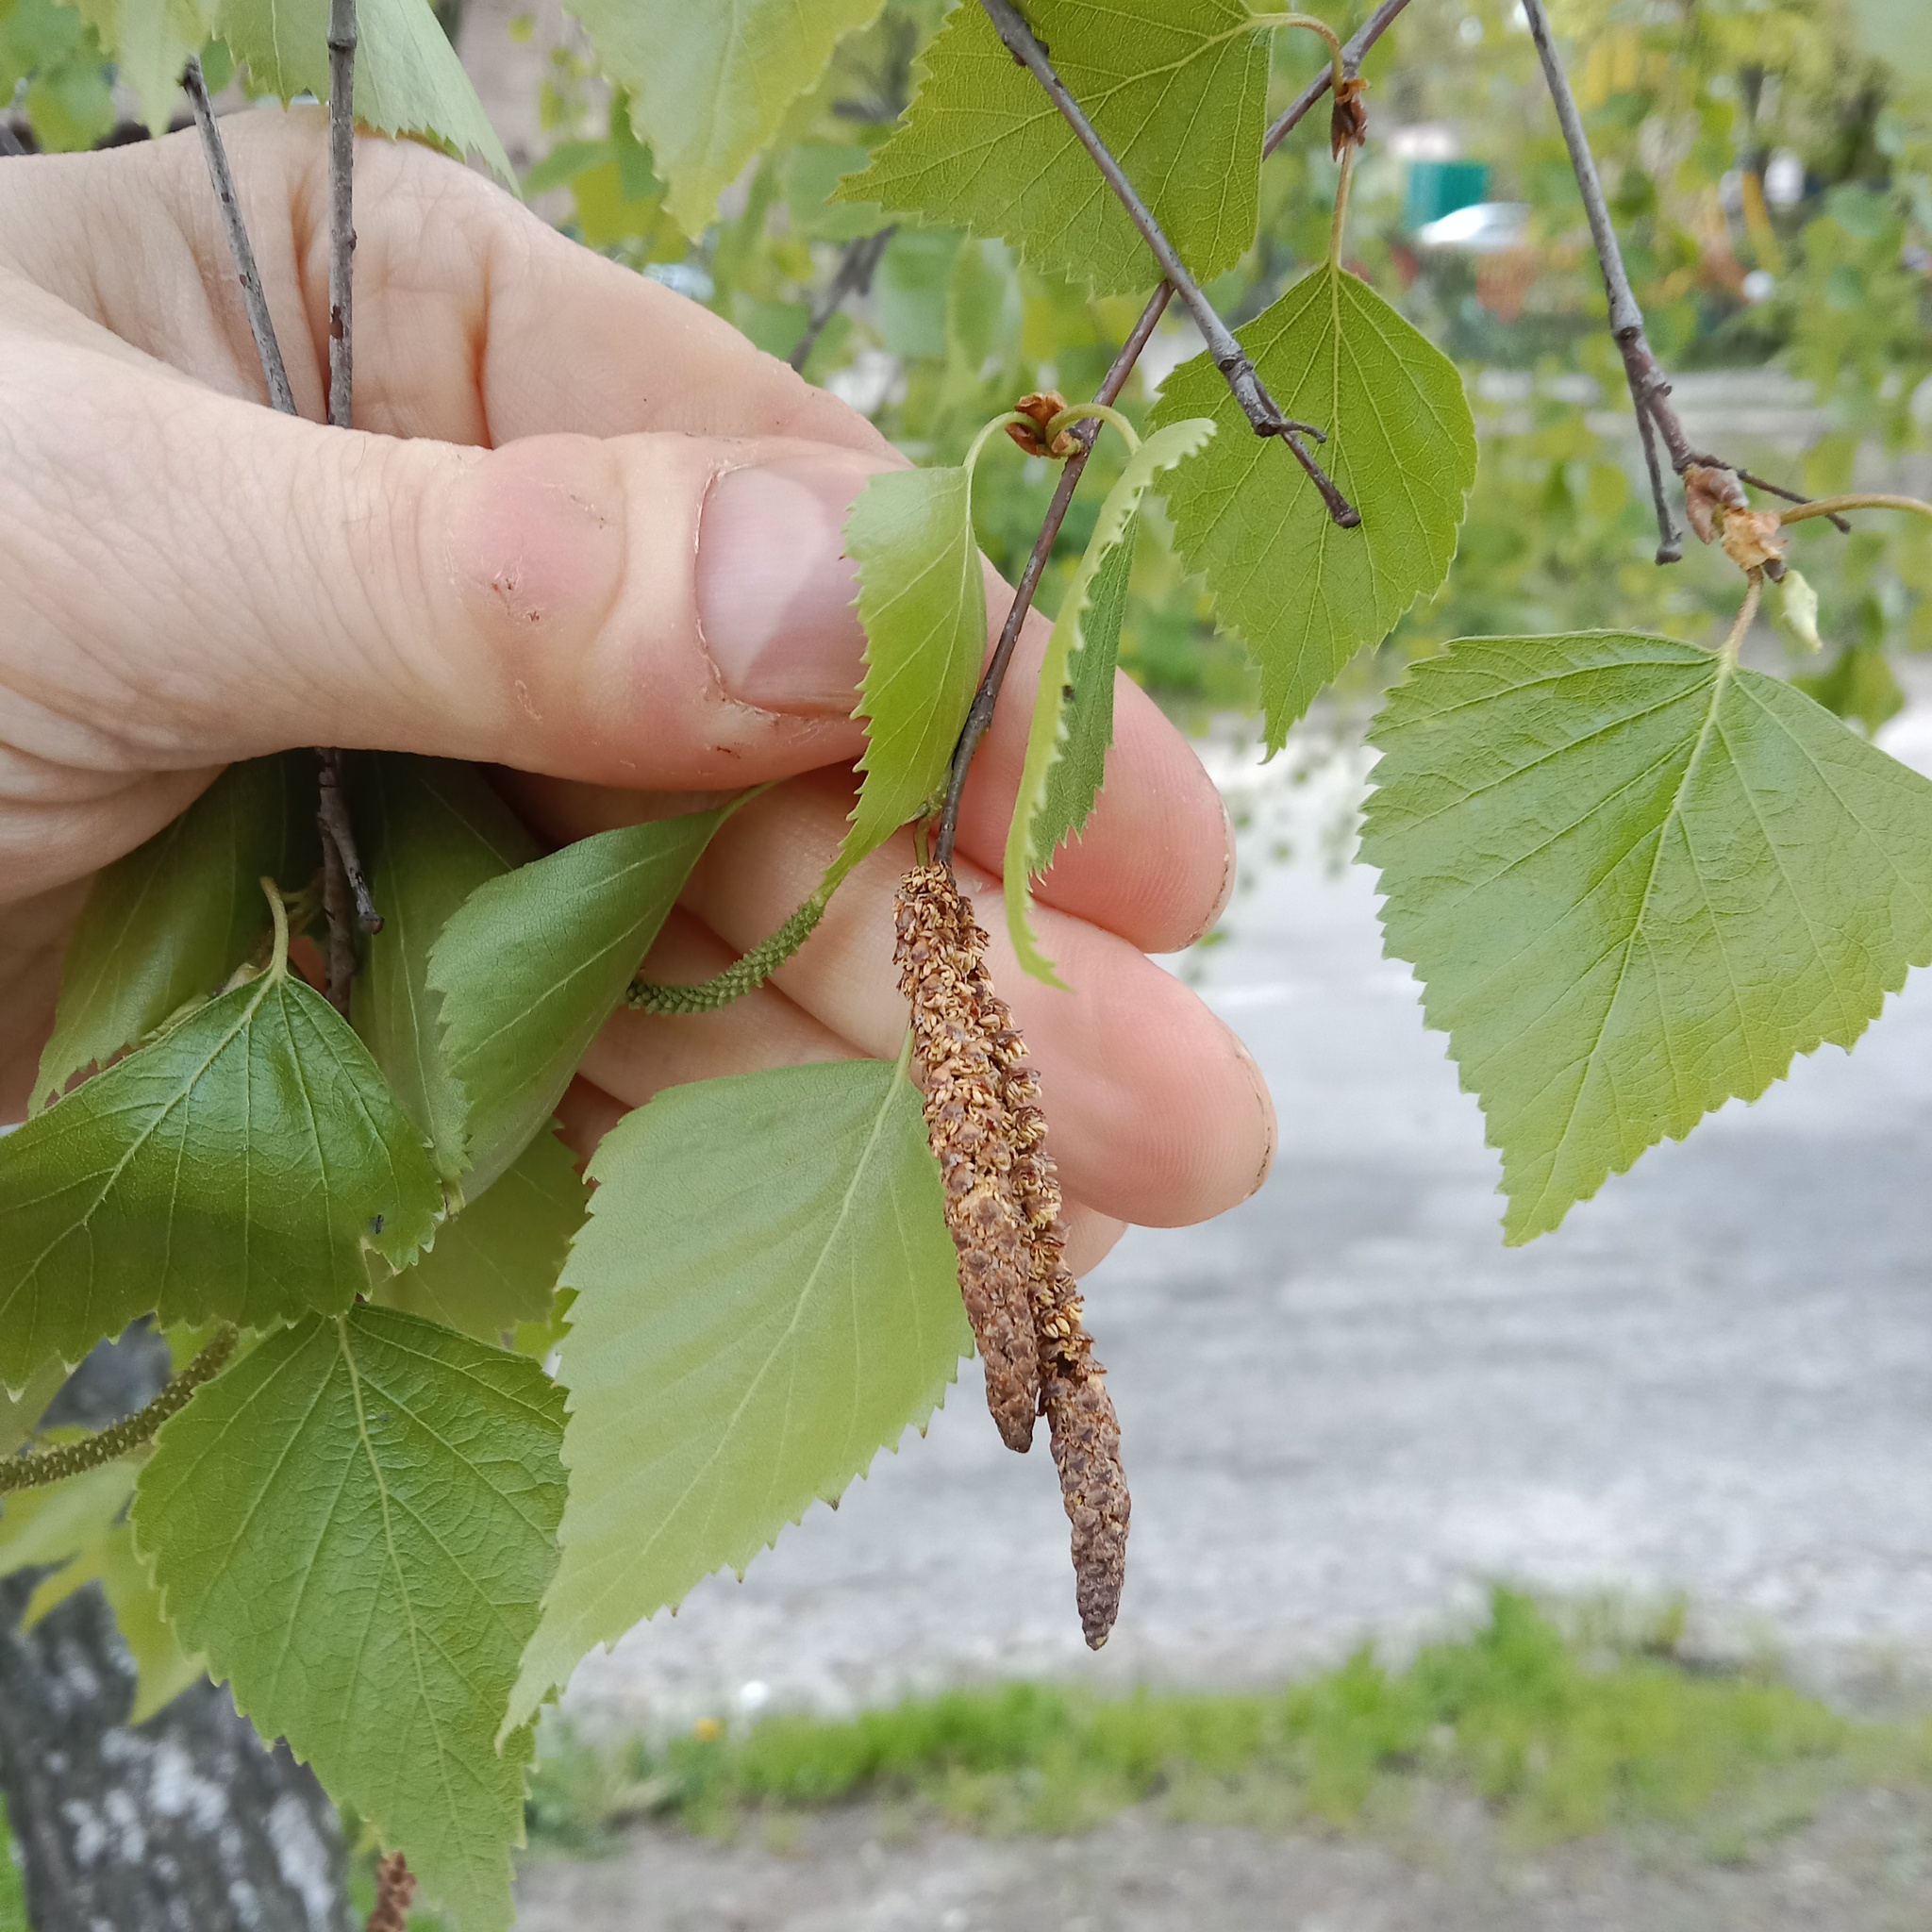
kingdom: Plantae
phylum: Tracheophyta
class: Magnoliopsida
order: Fagales
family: Betulaceae
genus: Betula
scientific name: Betula pendula
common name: Silver birch
